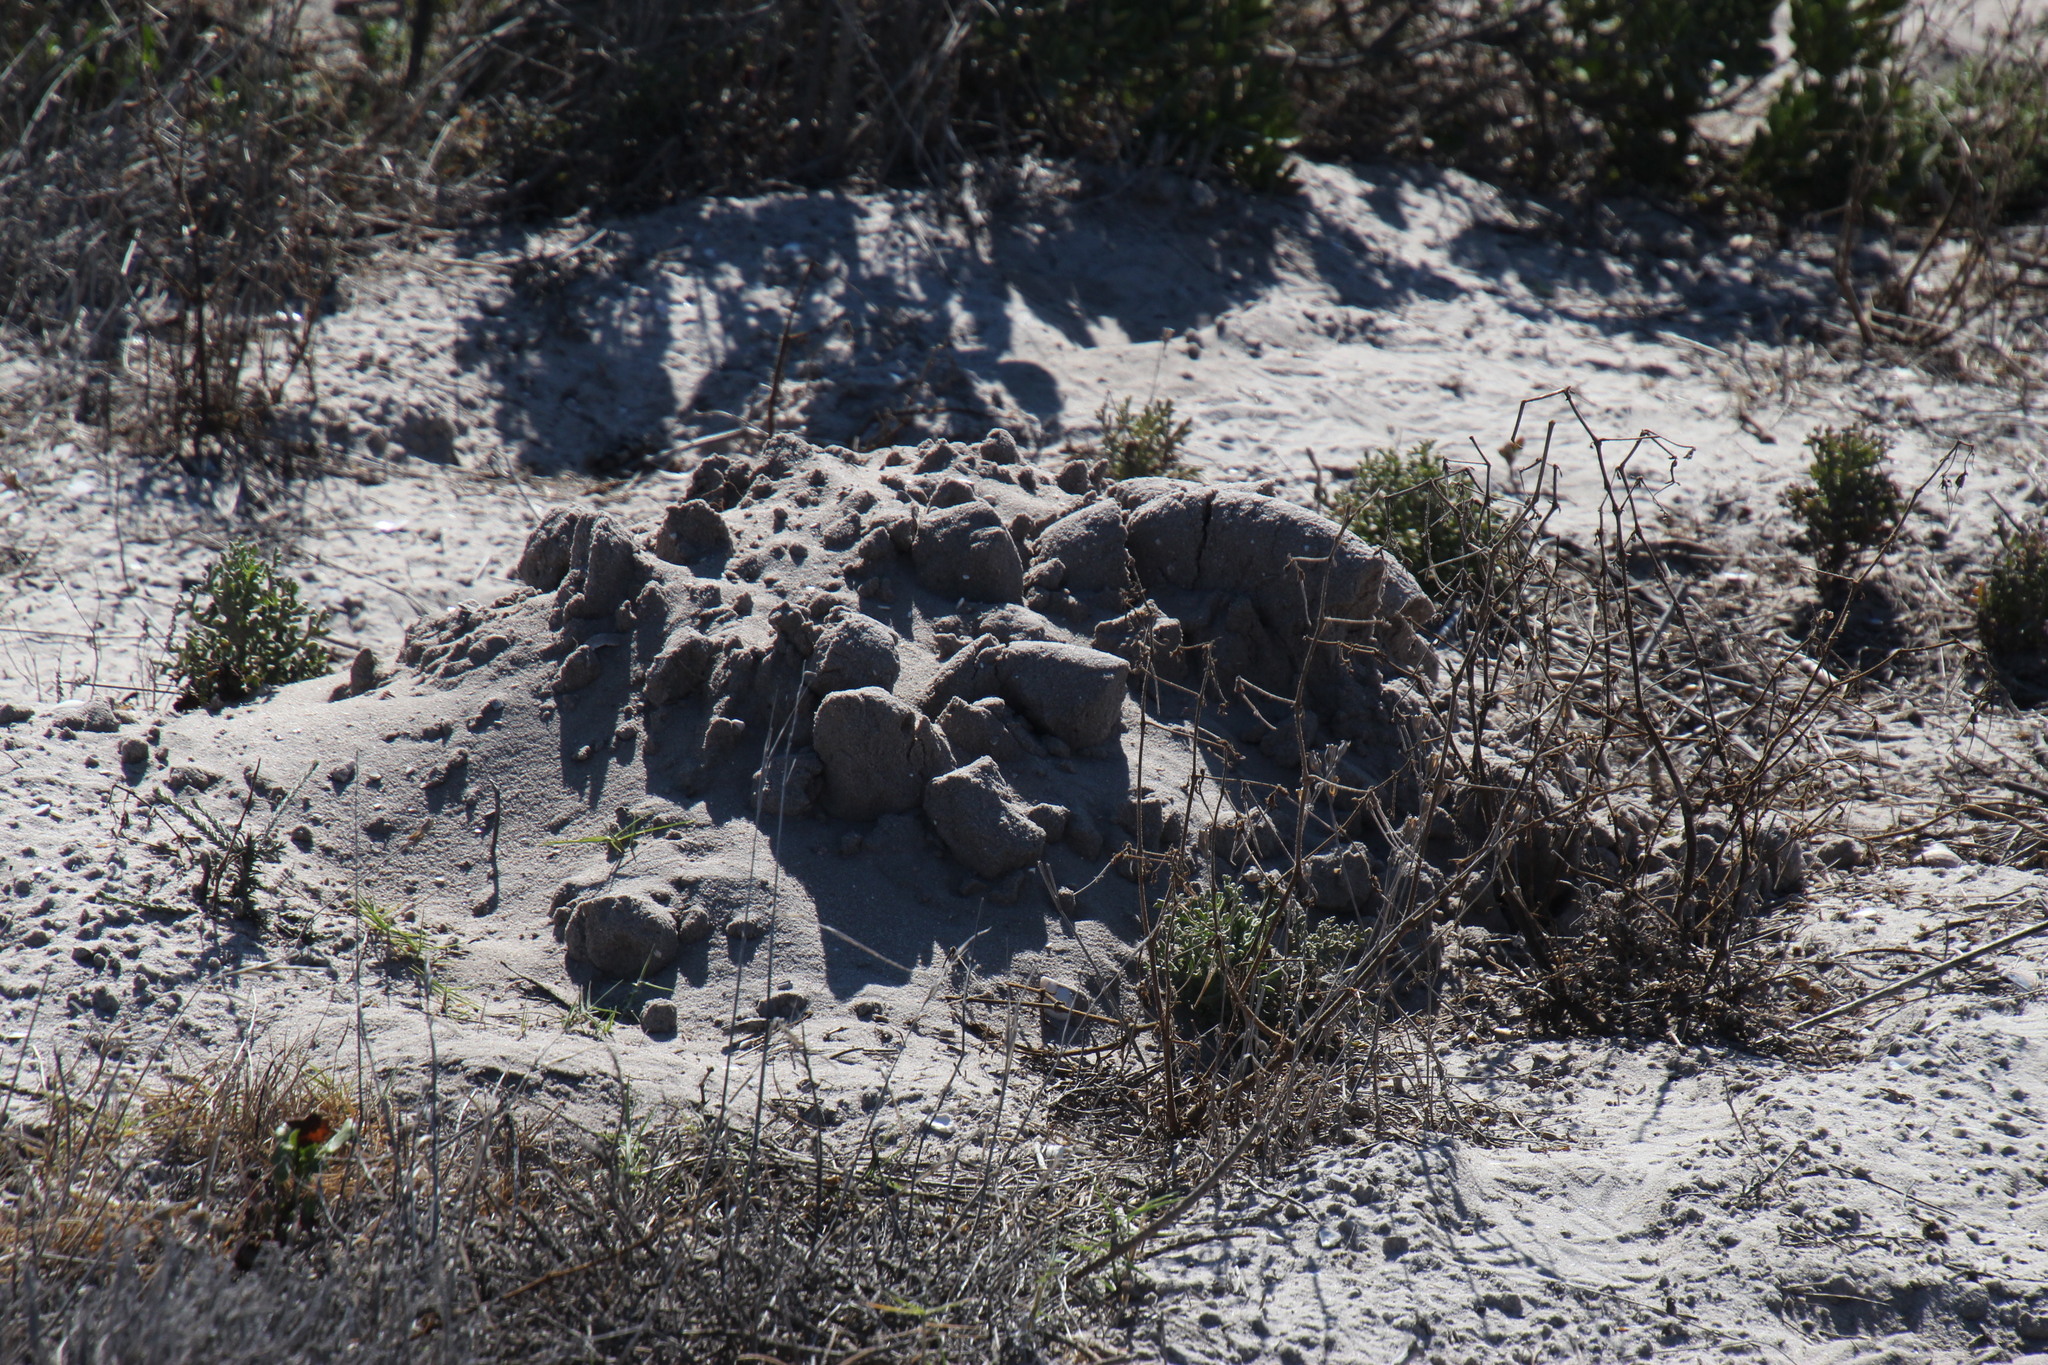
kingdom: Animalia
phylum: Chordata
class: Mammalia
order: Rodentia
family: Bathyergidae
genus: Bathyergus
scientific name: Bathyergus suillus
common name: Cape dune mole rat
